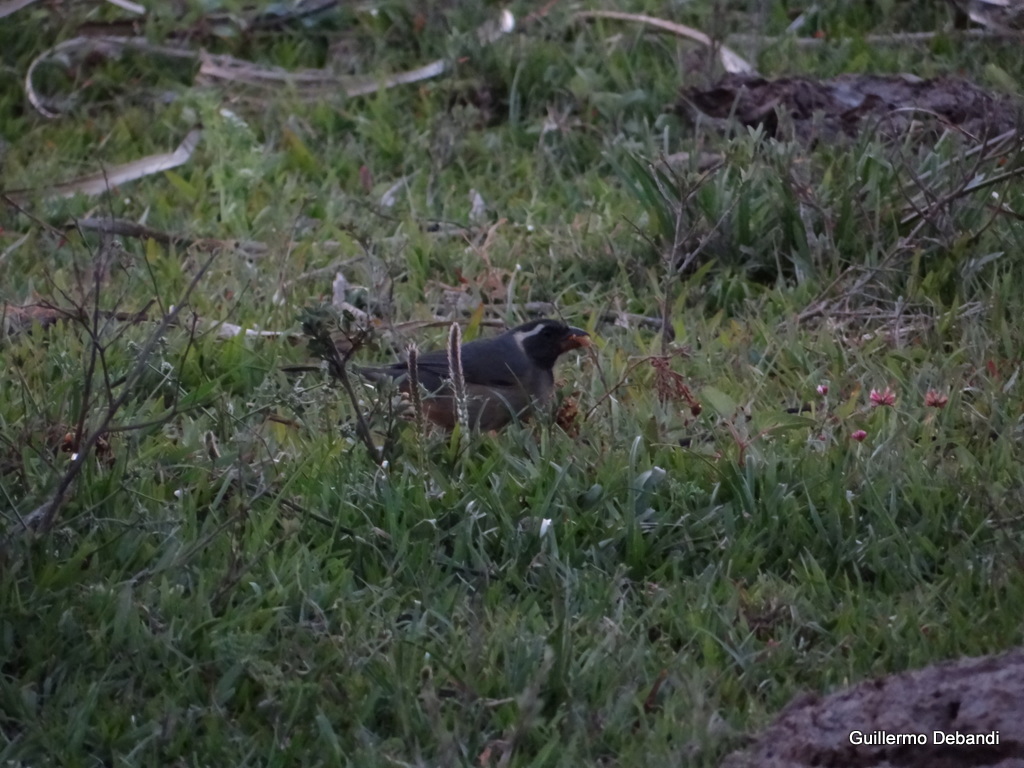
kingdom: Animalia
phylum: Chordata
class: Aves
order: Passeriformes
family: Thraupidae
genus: Saltator
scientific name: Saltator aurantiirostris
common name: Golden-billed saltator
